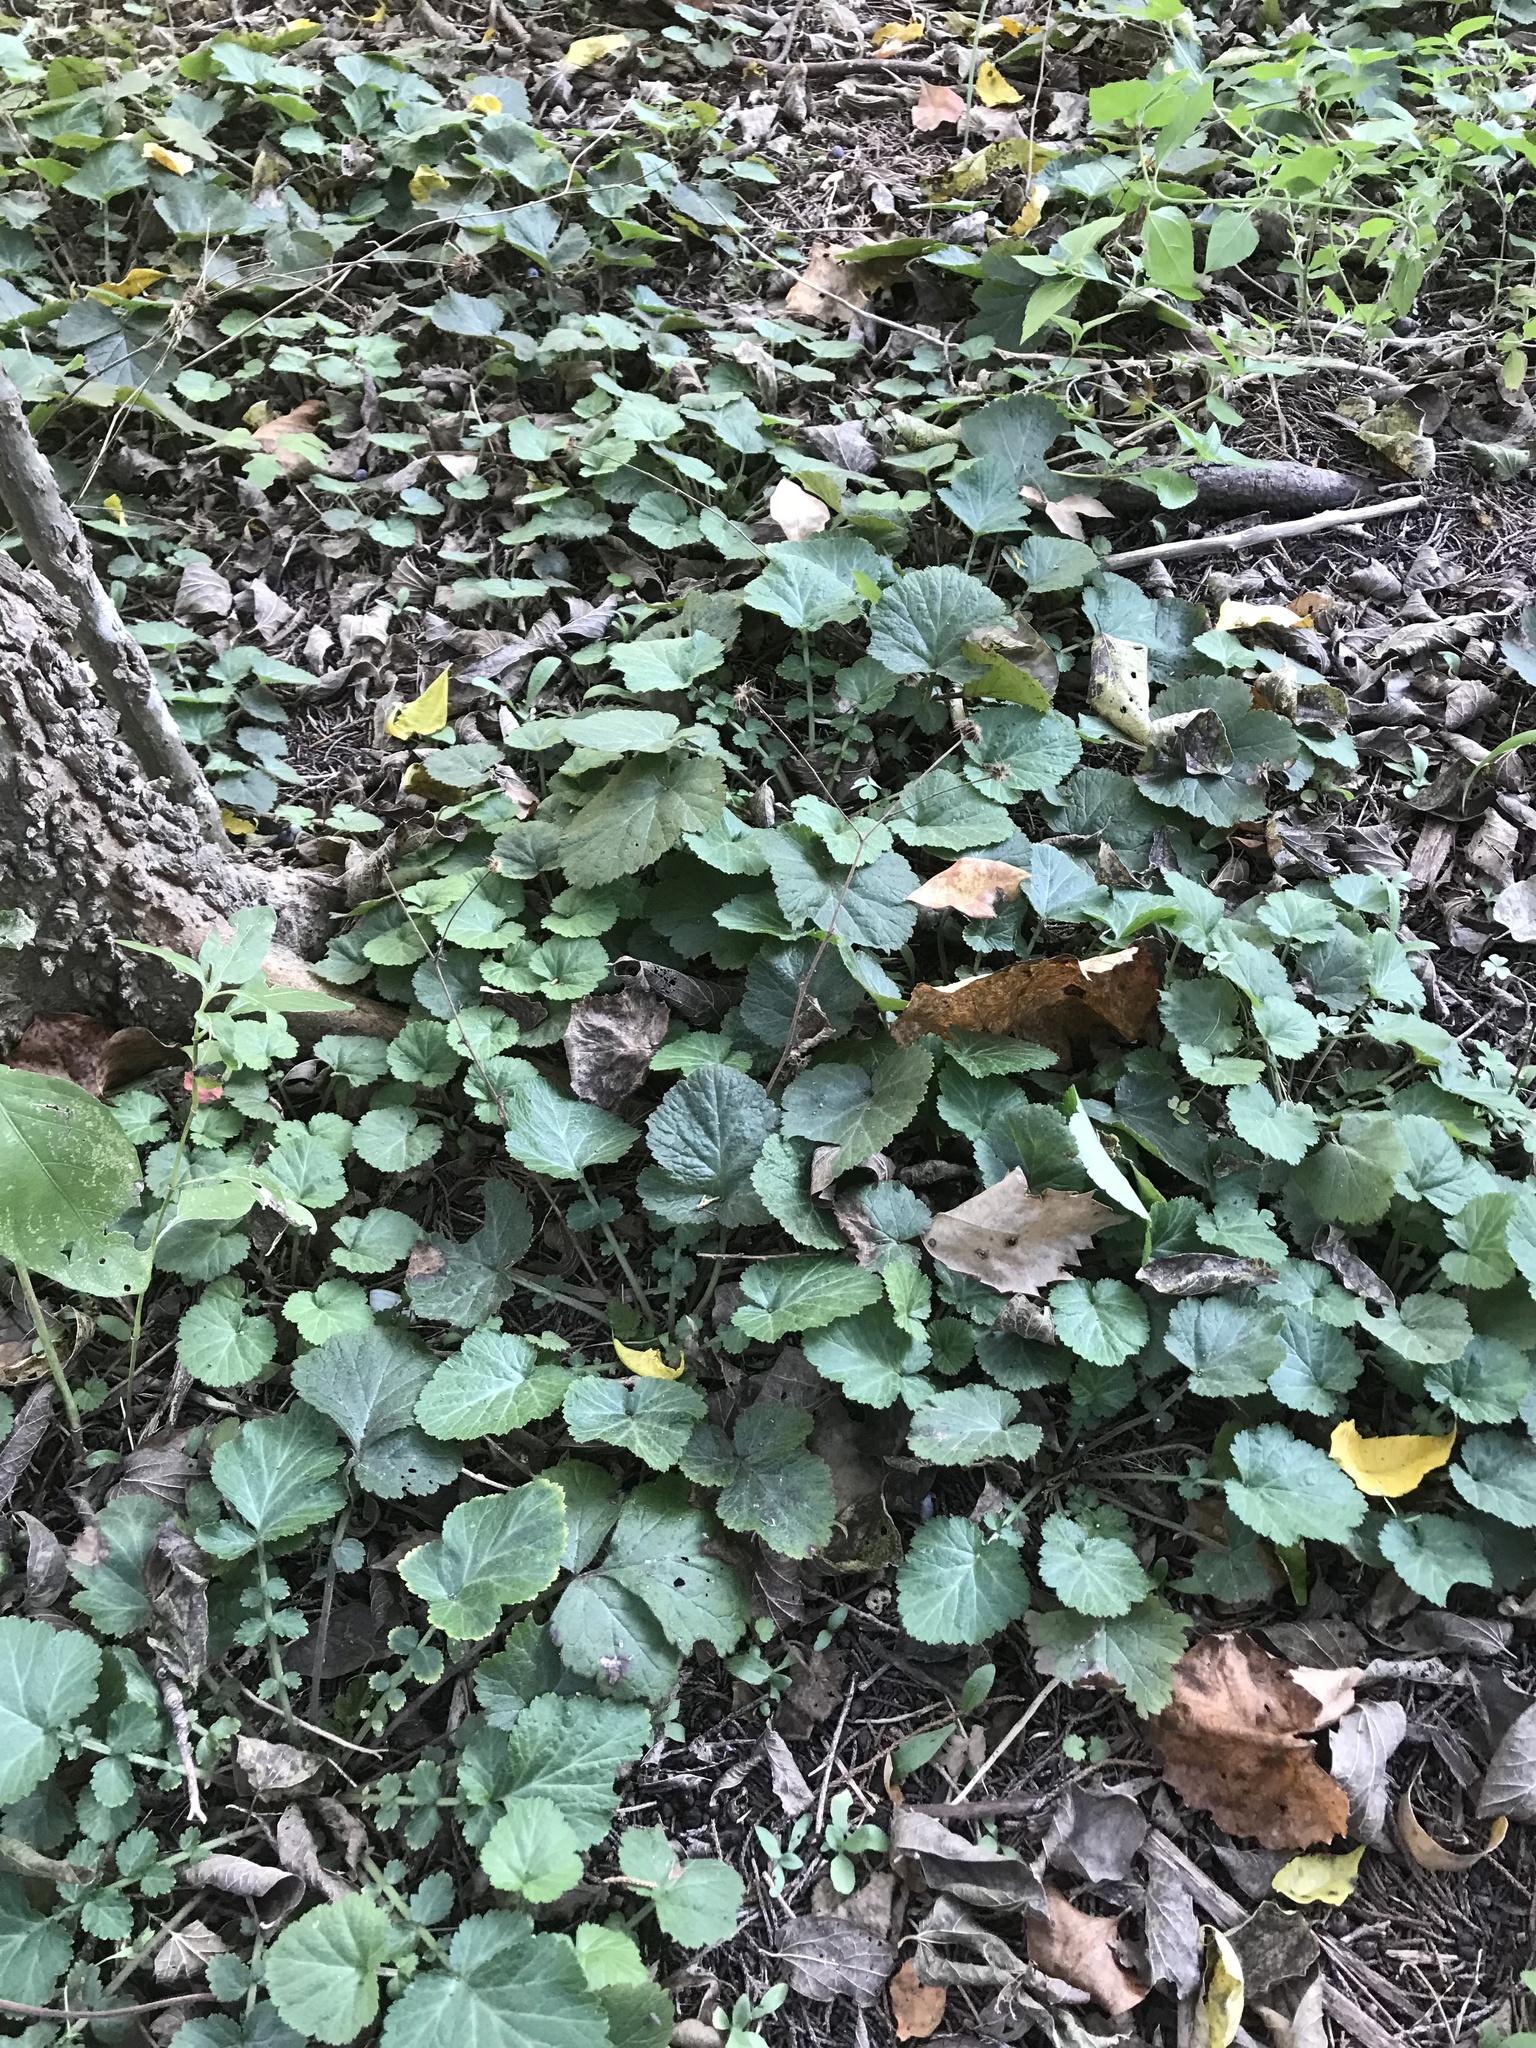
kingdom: Plantae
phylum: Tracheophyta
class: Magnoliopsida
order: Rosales
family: Rosaceae
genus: Geum
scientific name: Geum canadense
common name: White avens
